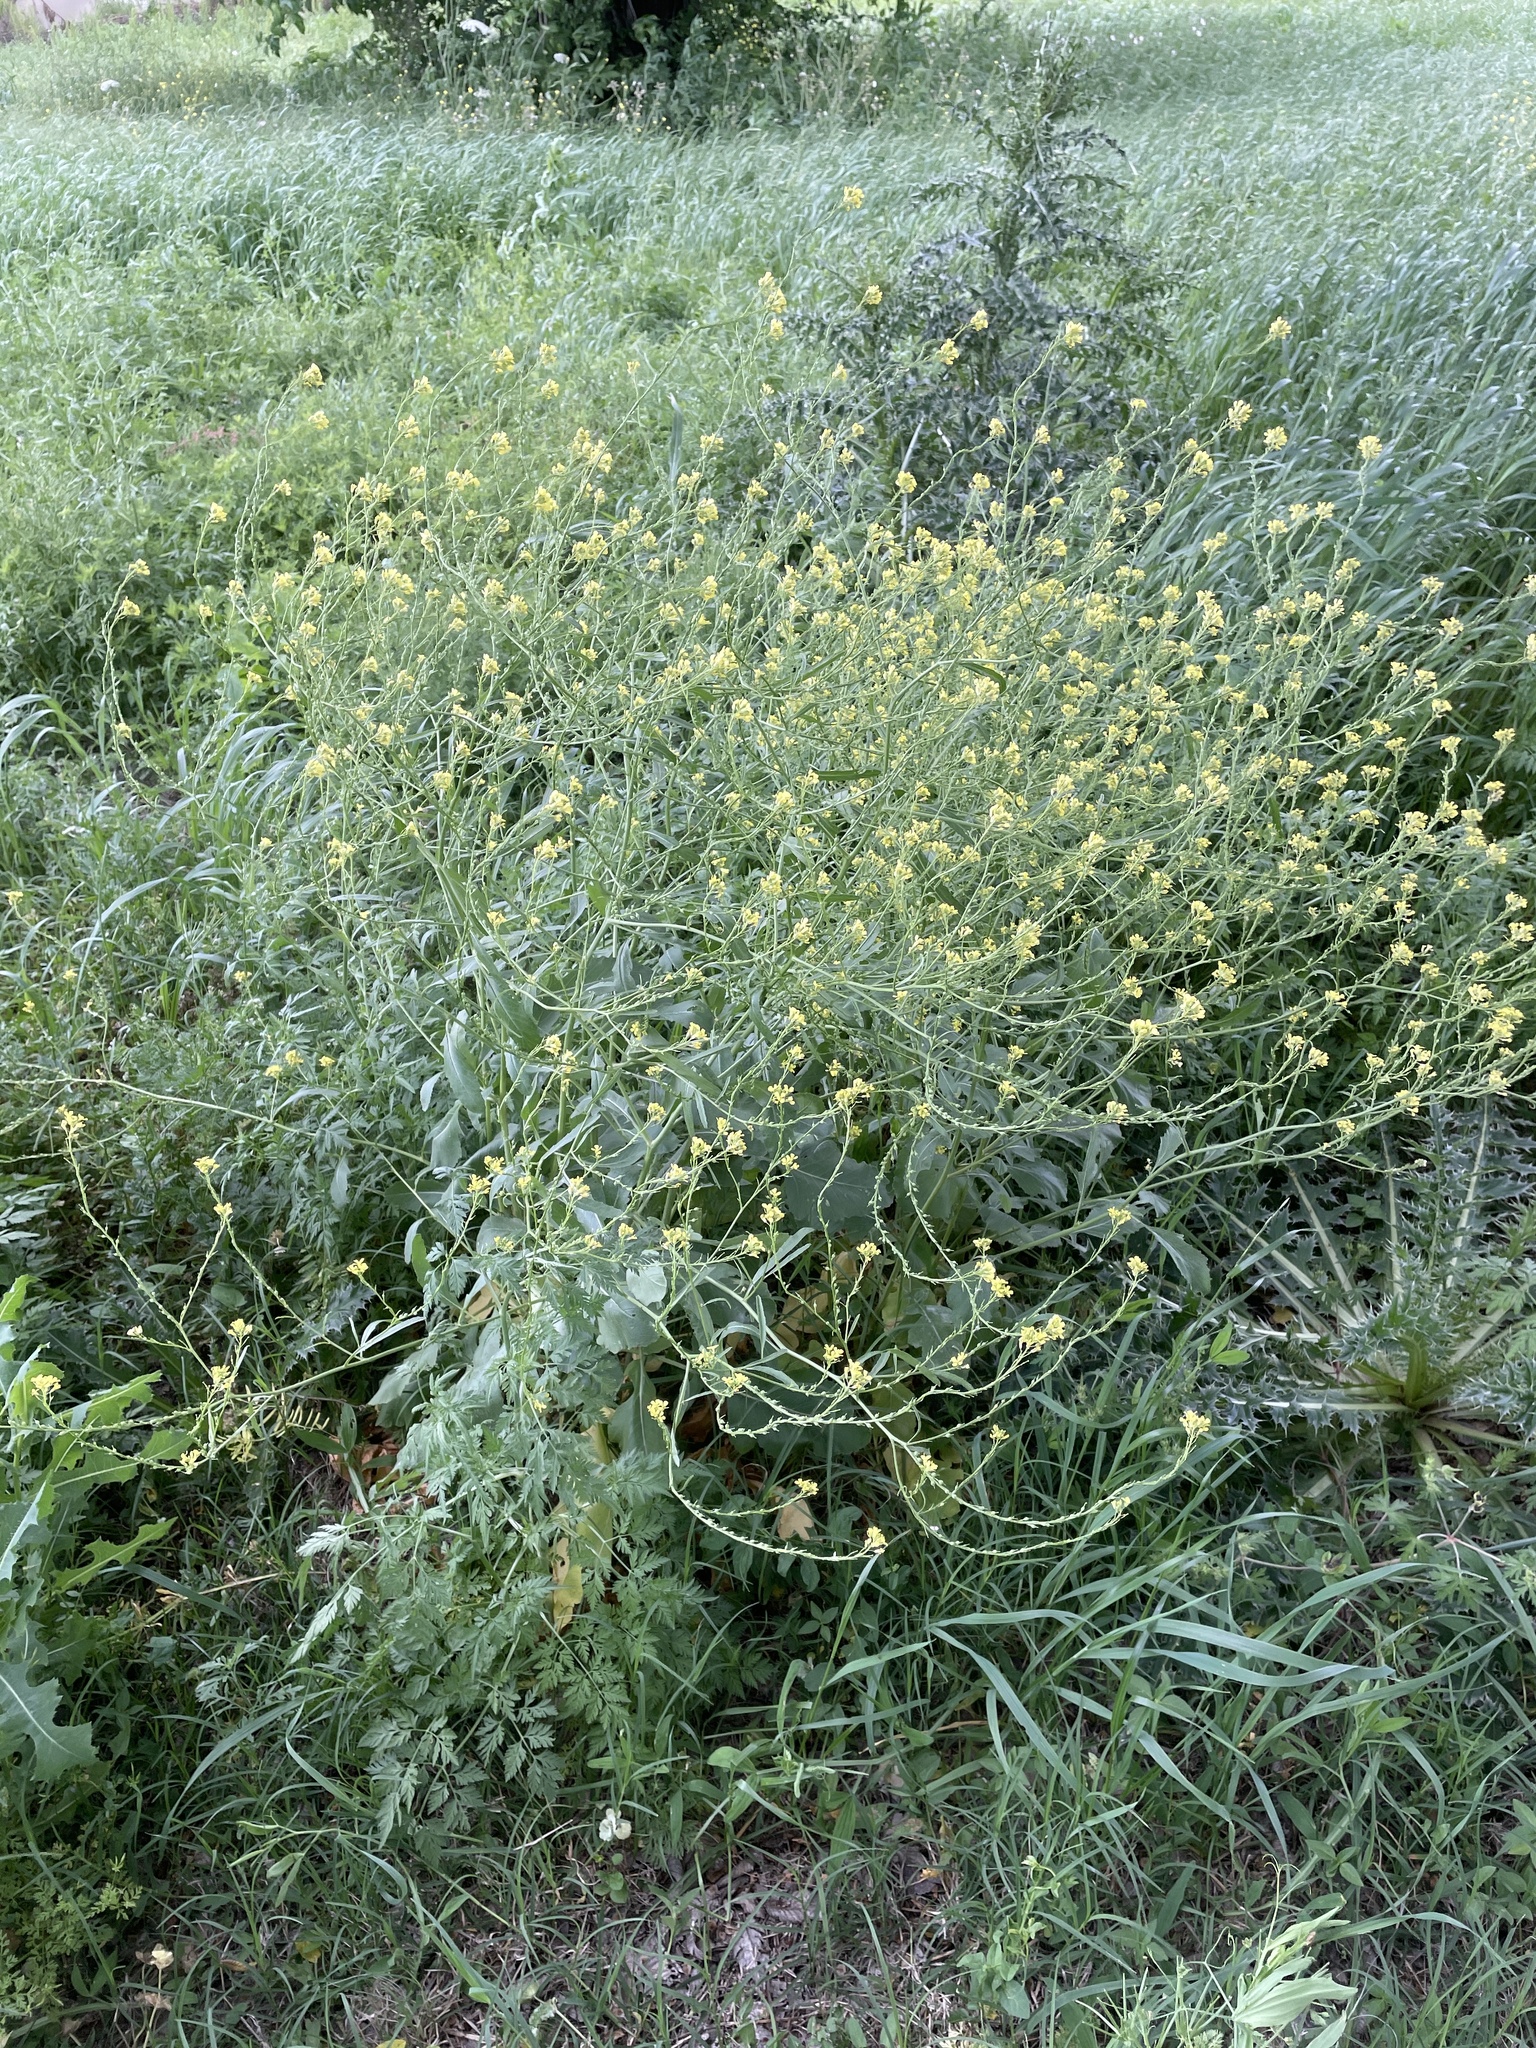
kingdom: Plantae
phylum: Tracheophyta
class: Magnoliopsida
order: Brassicales
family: Brassicaceae
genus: Rapistrum
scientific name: Rapistrum rugosum
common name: Annual bastardcabbage
